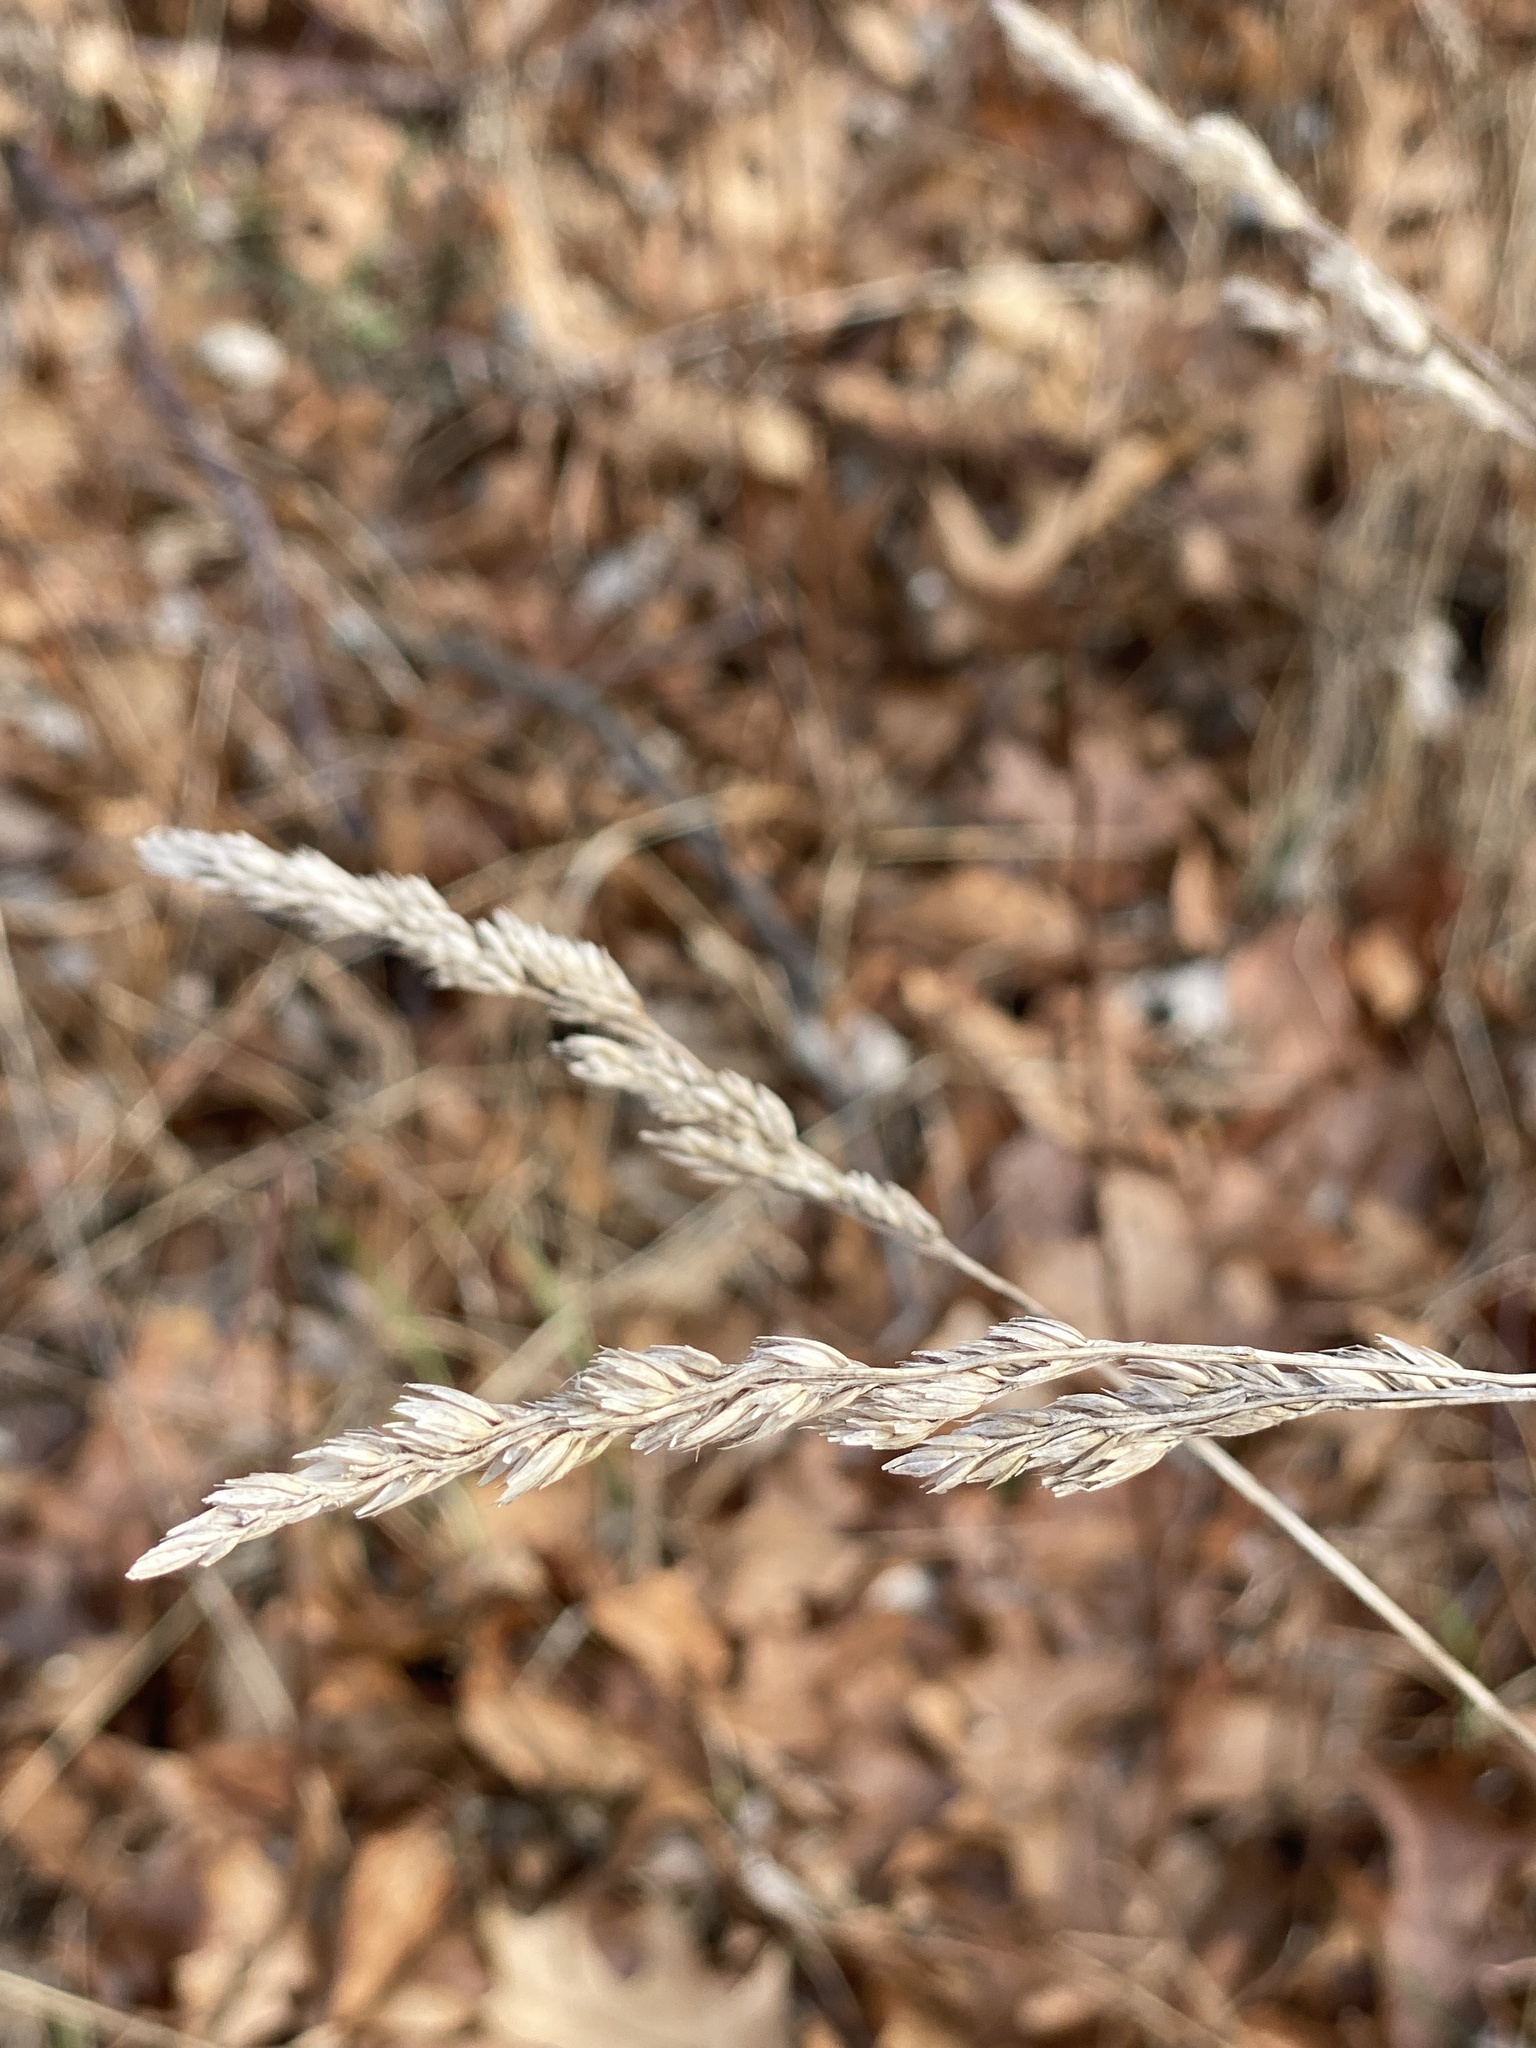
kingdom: Plantae
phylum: Tracheophyta
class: Liliopsida
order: Poales
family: Poaceae
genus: Dactylis
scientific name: Dactylis glomerata
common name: Orchardgrass
